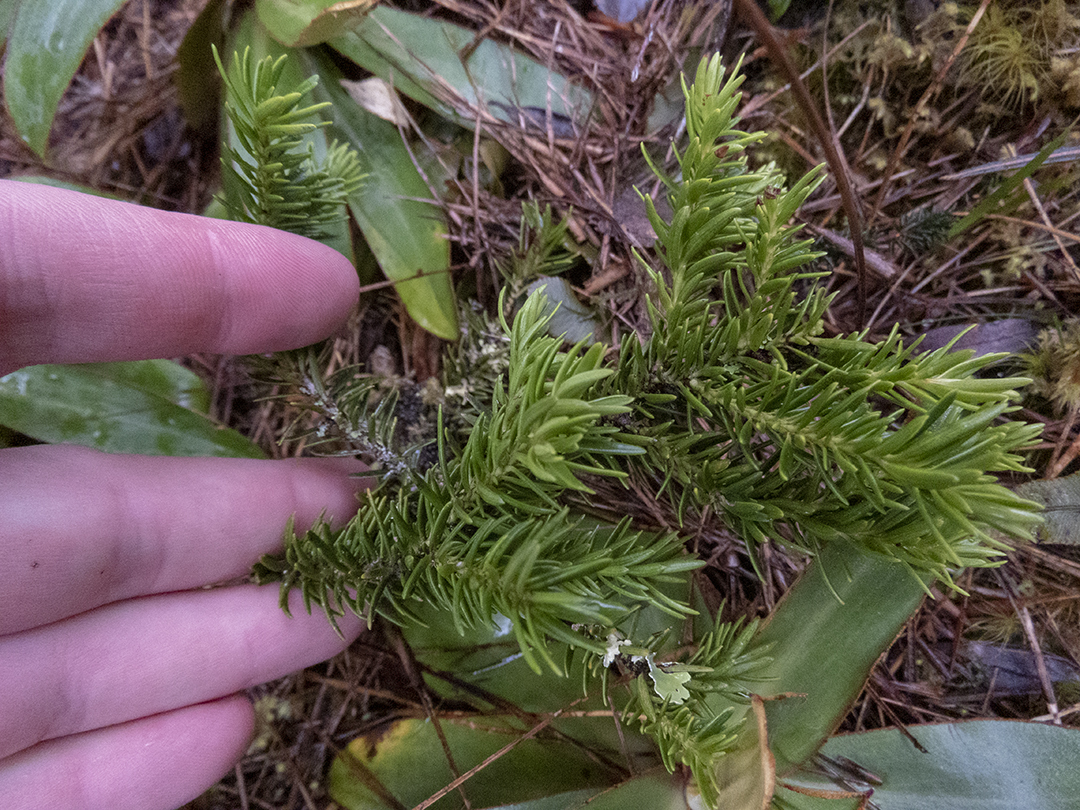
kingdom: Plantae
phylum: Tracheophyta
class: Pinopsida
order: Pinales
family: Podocarpaceae
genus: Halocarpus
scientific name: Halocarpus biformis
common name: Alpine tarwood
